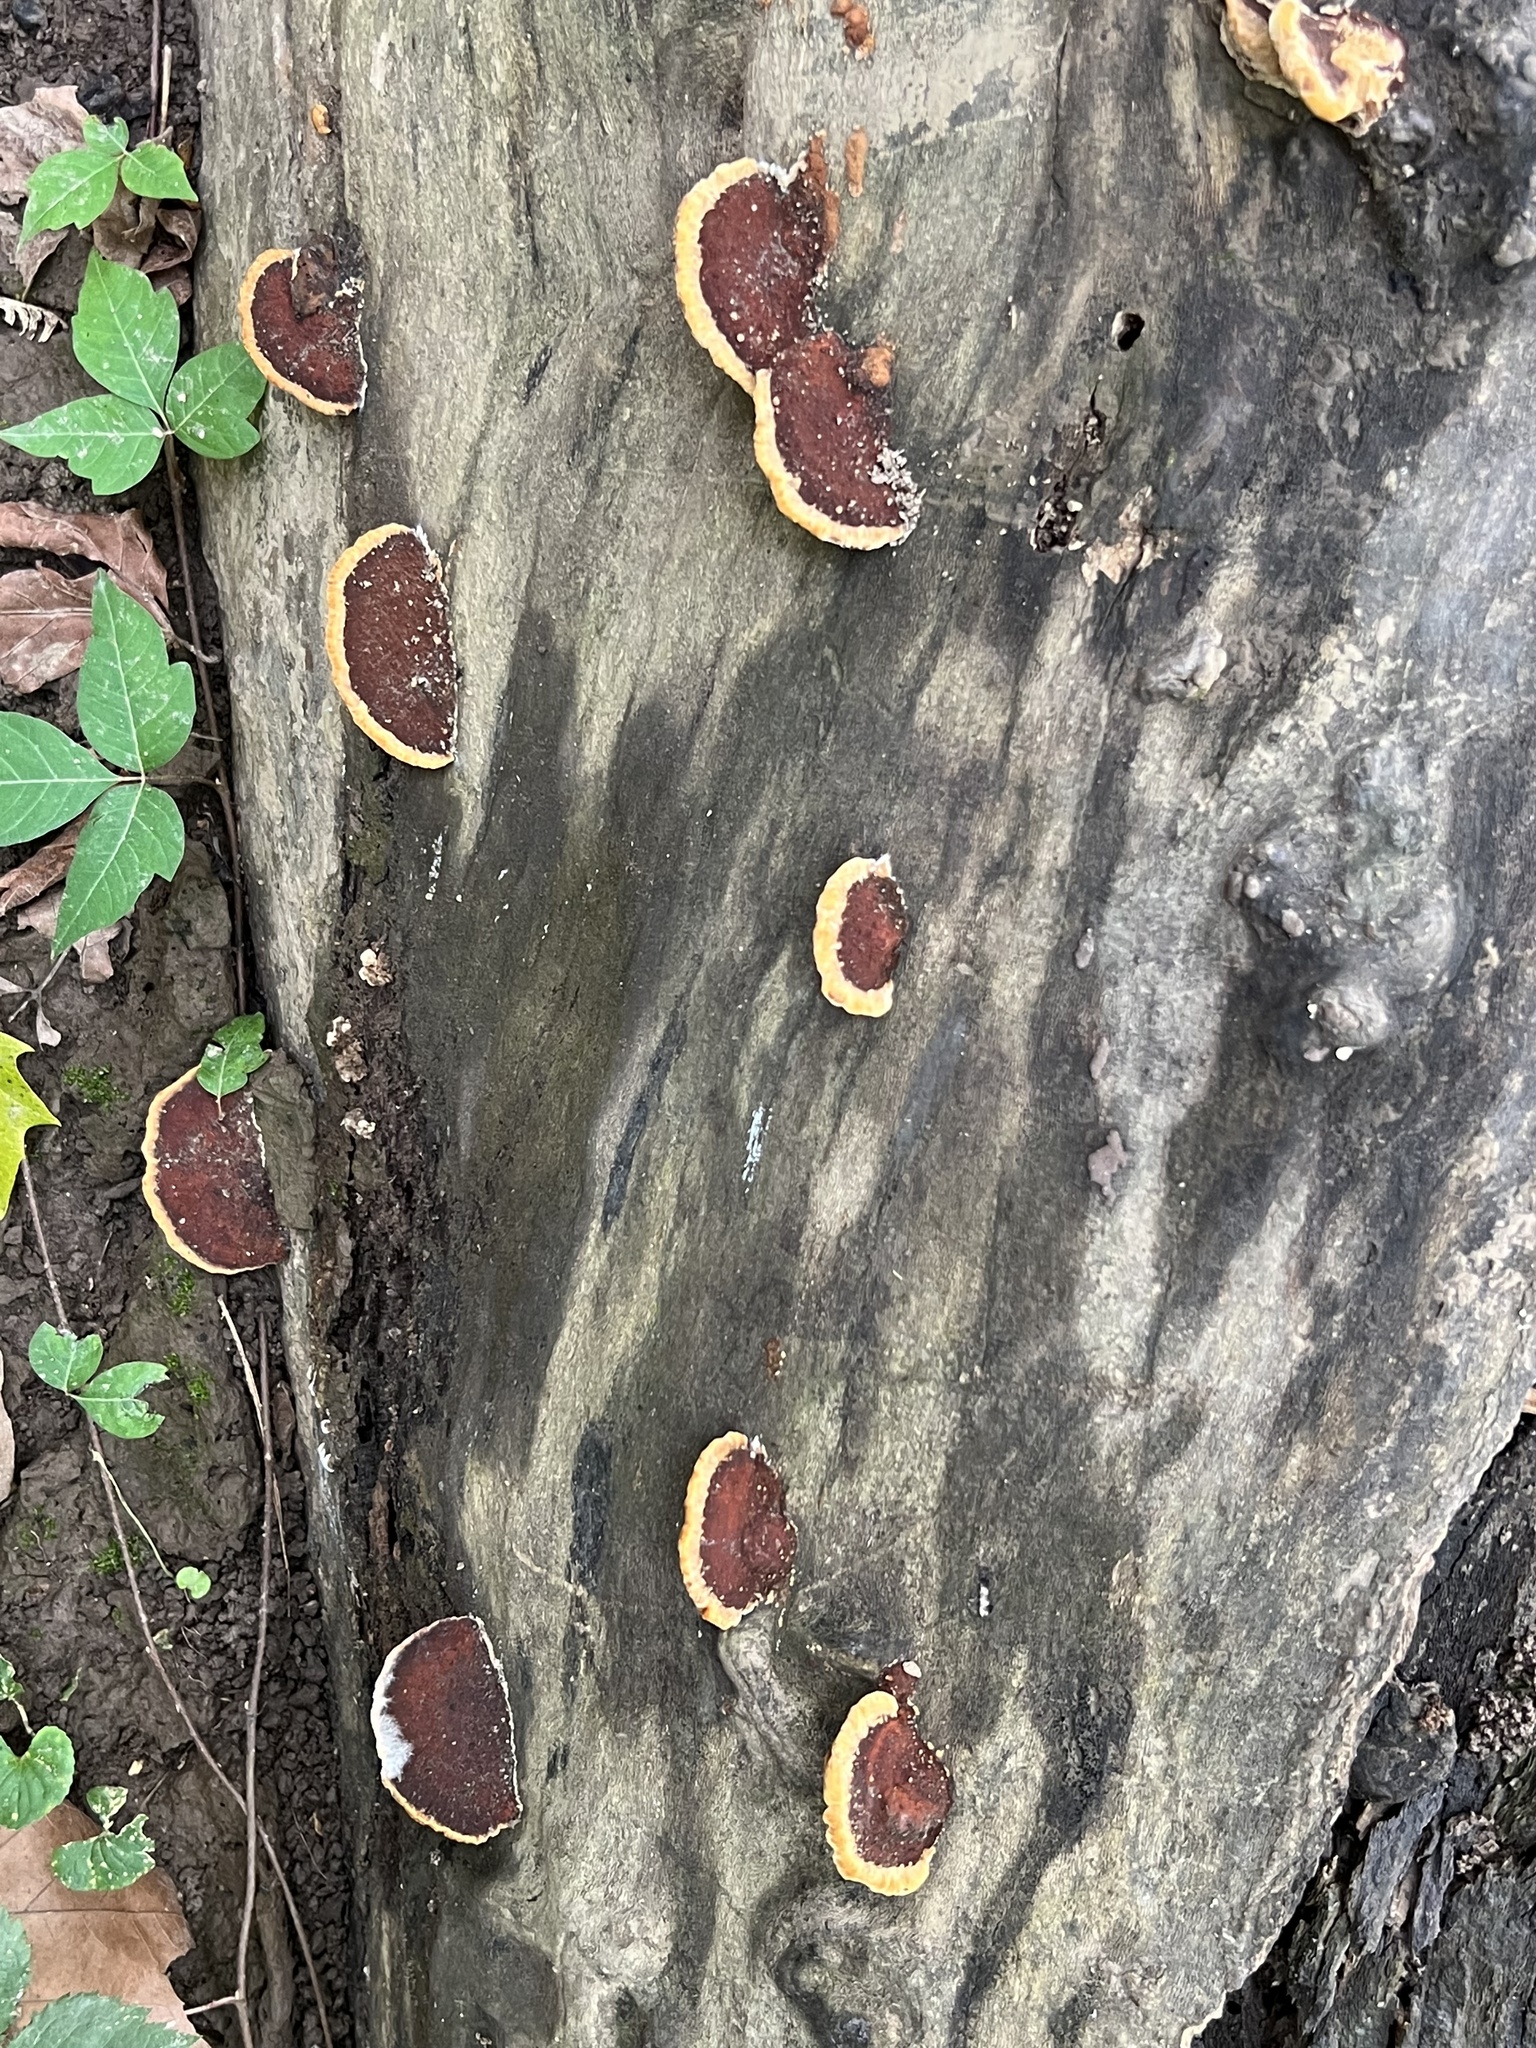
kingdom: Fungi
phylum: Basidiomycota
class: Agaricomycetes
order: Hymenochaetales
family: Hymenochaetaceae
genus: Phellinus
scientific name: Phellinus gilvus
